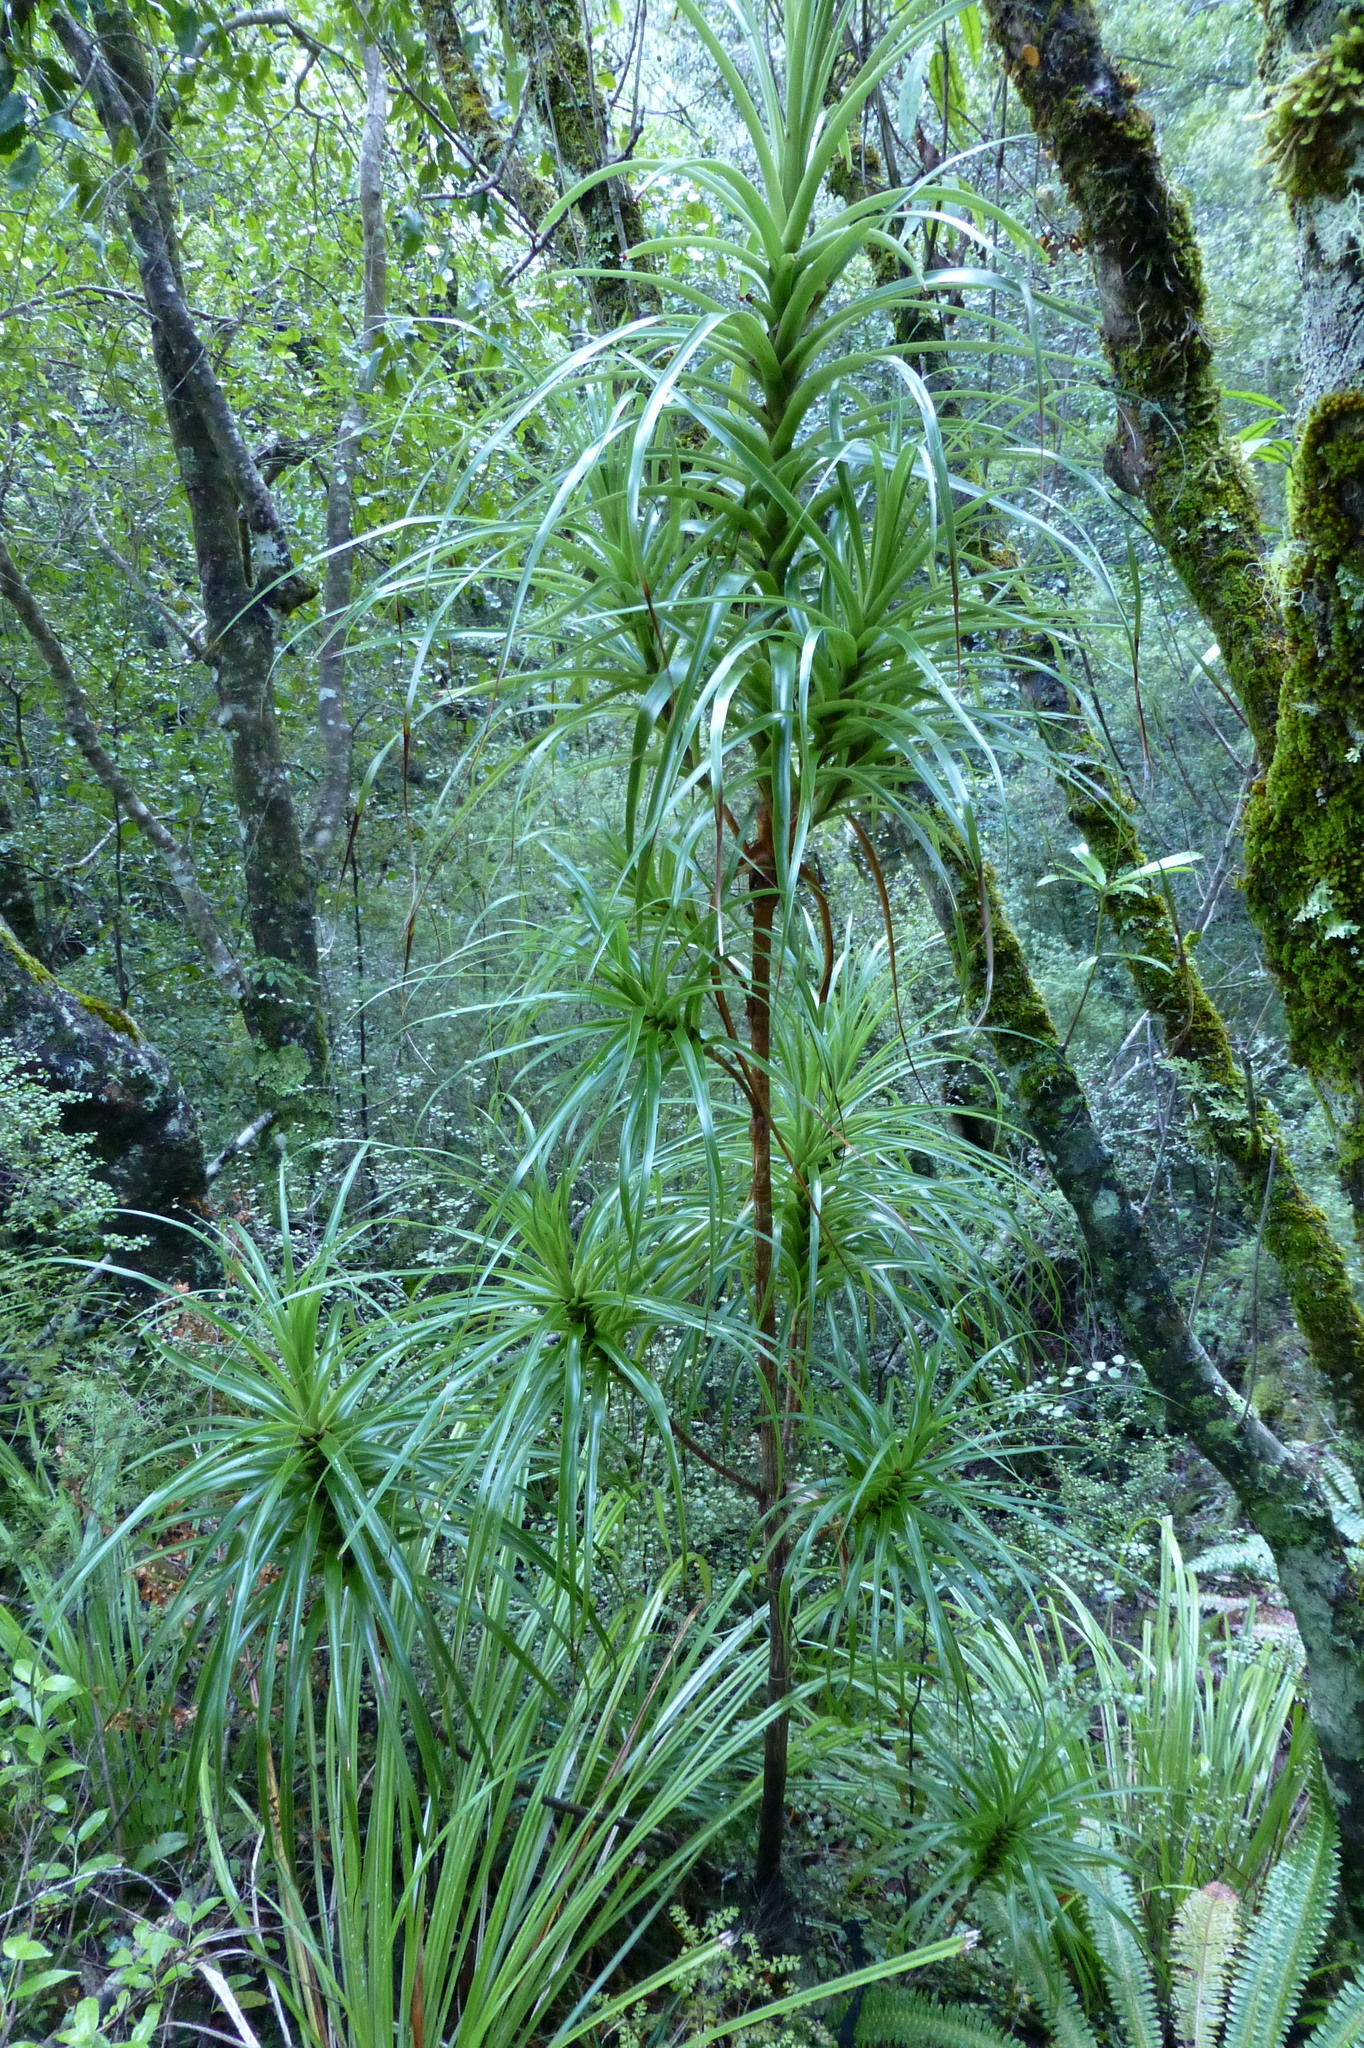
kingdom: Plantae
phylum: Tracheophyta
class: Magnoliopsida
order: Ericales
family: Ericaceae
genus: Dracophyllum
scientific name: Dracophyllum latifolium
